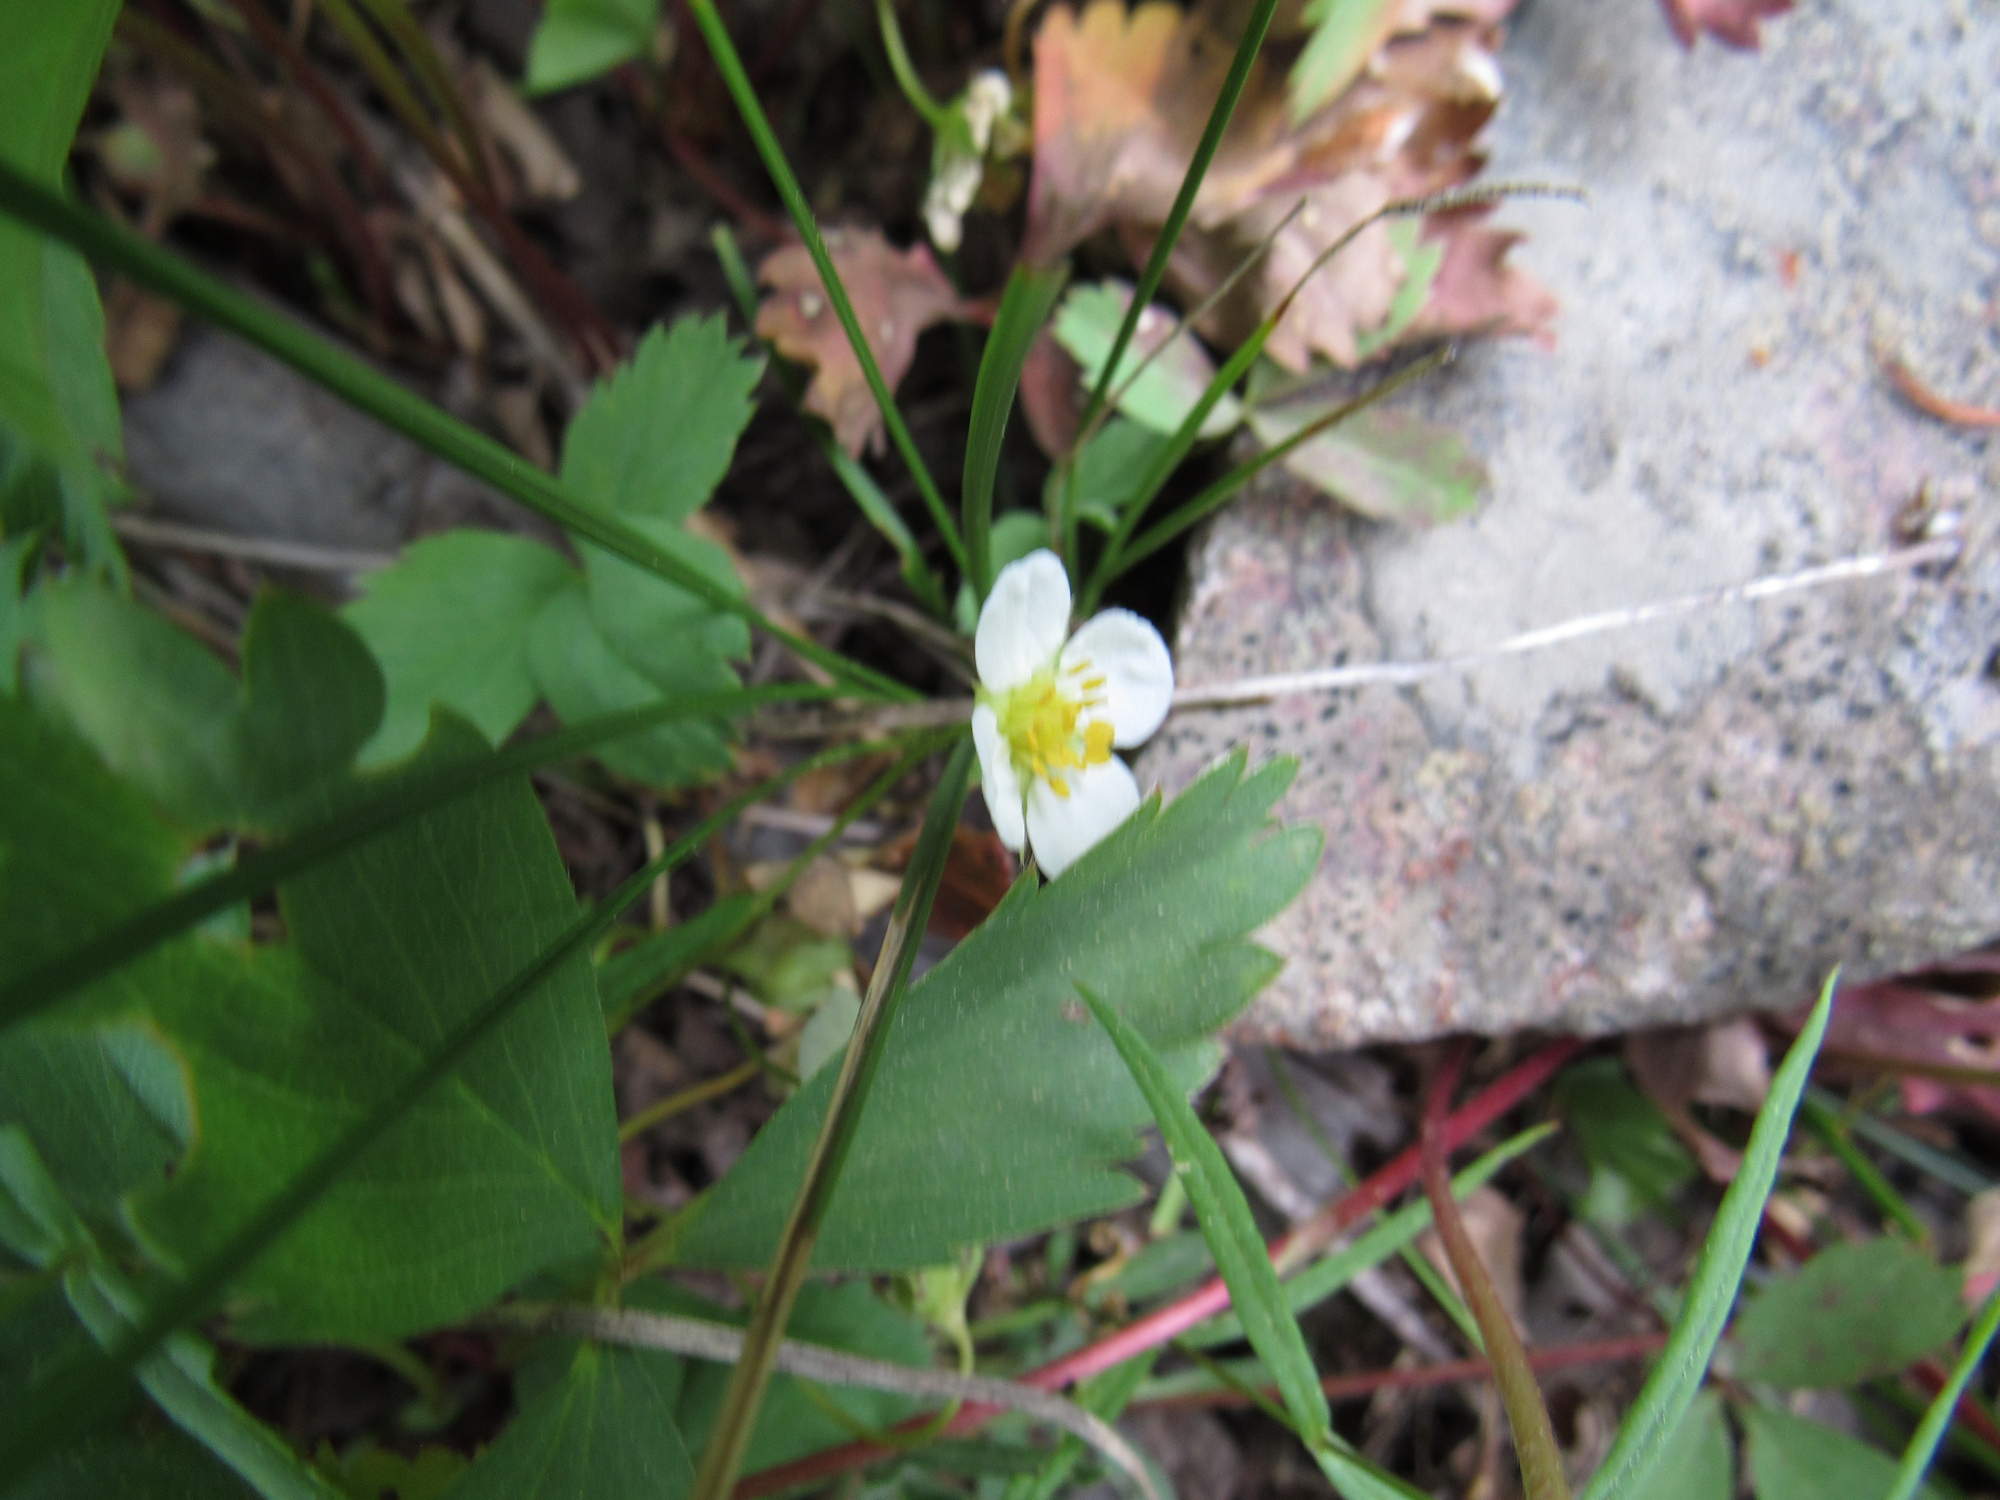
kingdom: Plantae
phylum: Tracheophyta
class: Magnoliopsida
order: Rosales
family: Rosaceae
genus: Fragaria
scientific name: Fragaria virginiana
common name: Thickleaved wild strawberry
